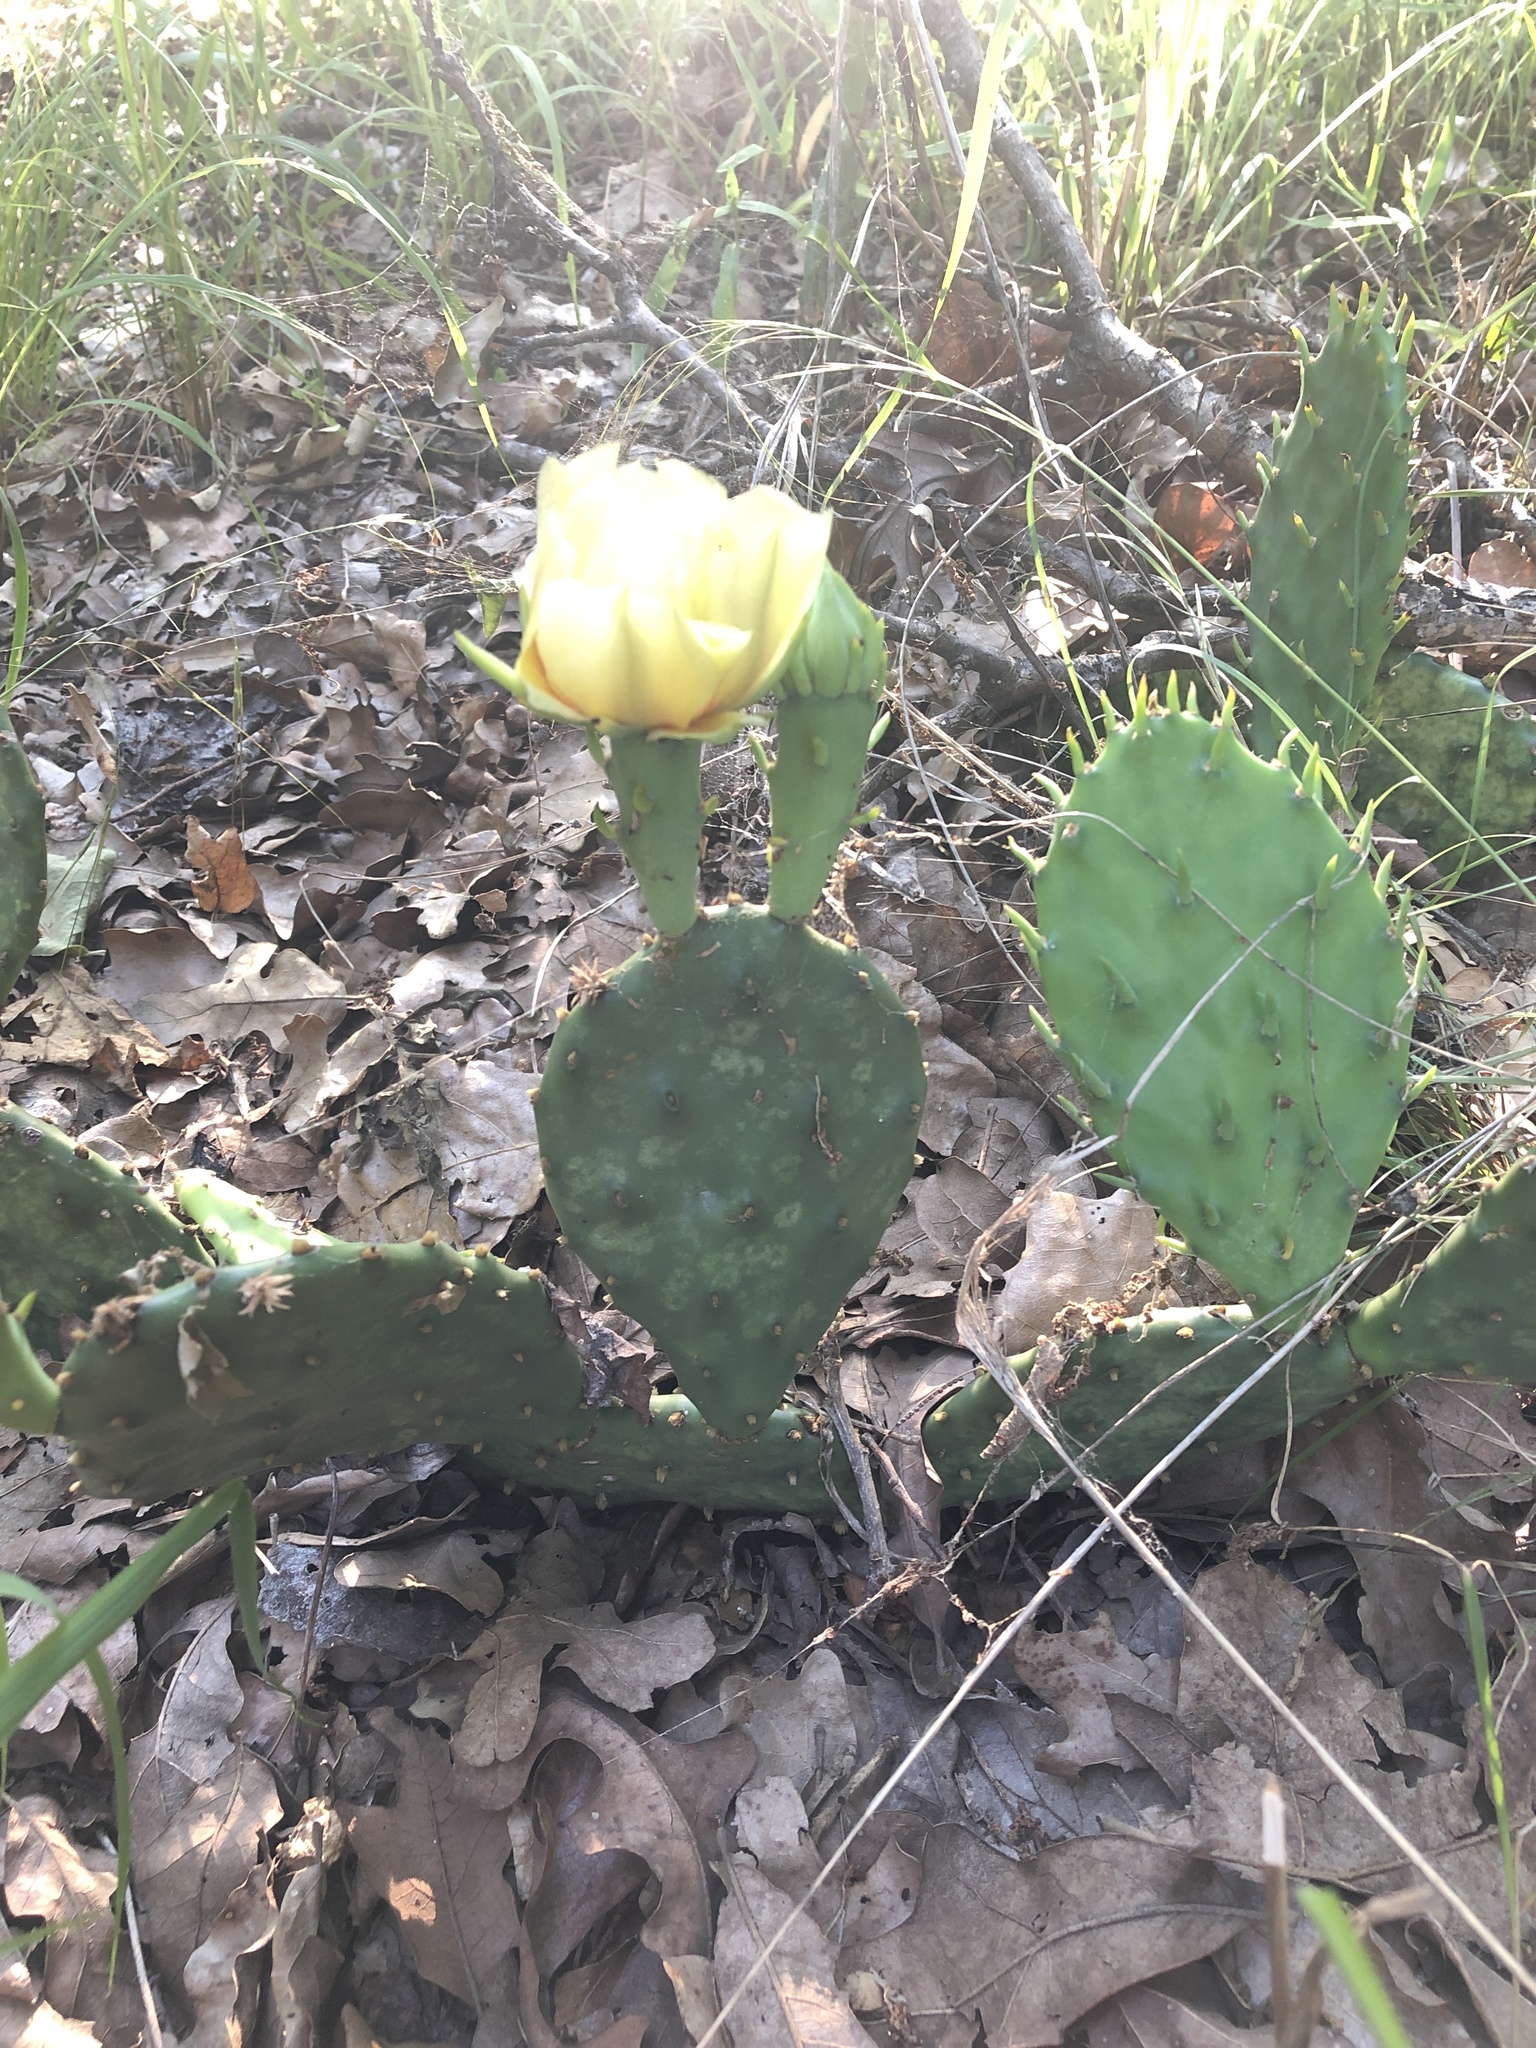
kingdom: Plantae
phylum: Tracheophyta
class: Magnoliopsida
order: Caryophyllales
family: Cactaceae
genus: Opuntia
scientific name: Opuntia macrorhiza
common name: Grassland pricklypear
